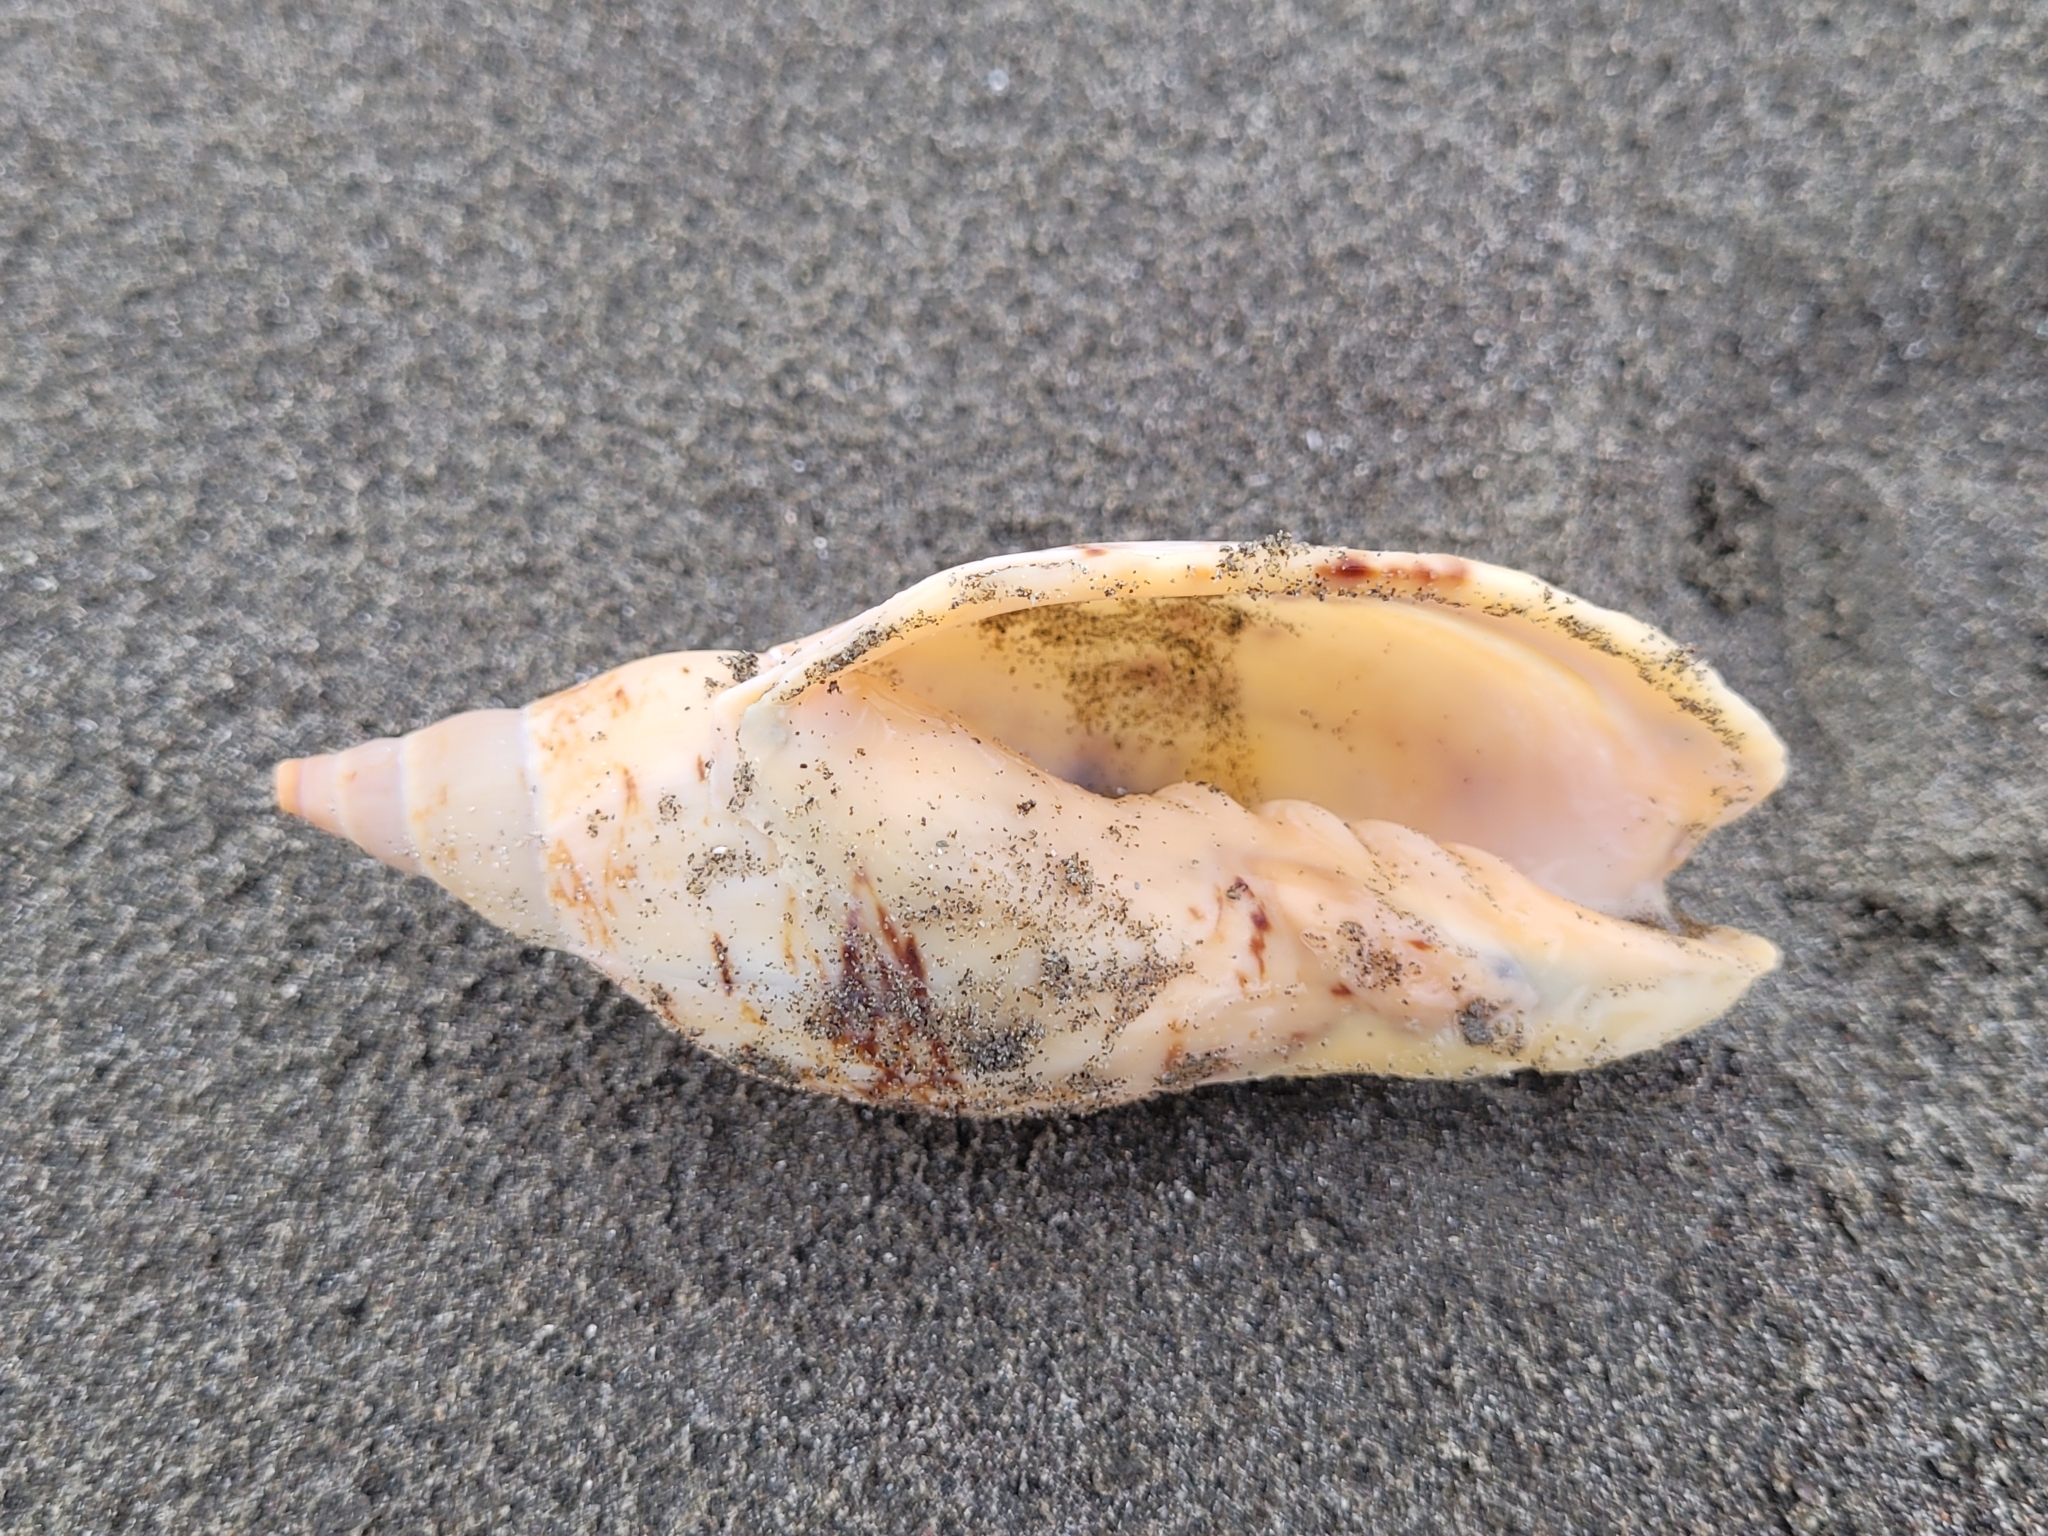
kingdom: Animalia
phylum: Mollusca
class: Gastropoda
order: Neogastropoda
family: Volutidae
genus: Alcithoe
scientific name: Alcithoe arabica
